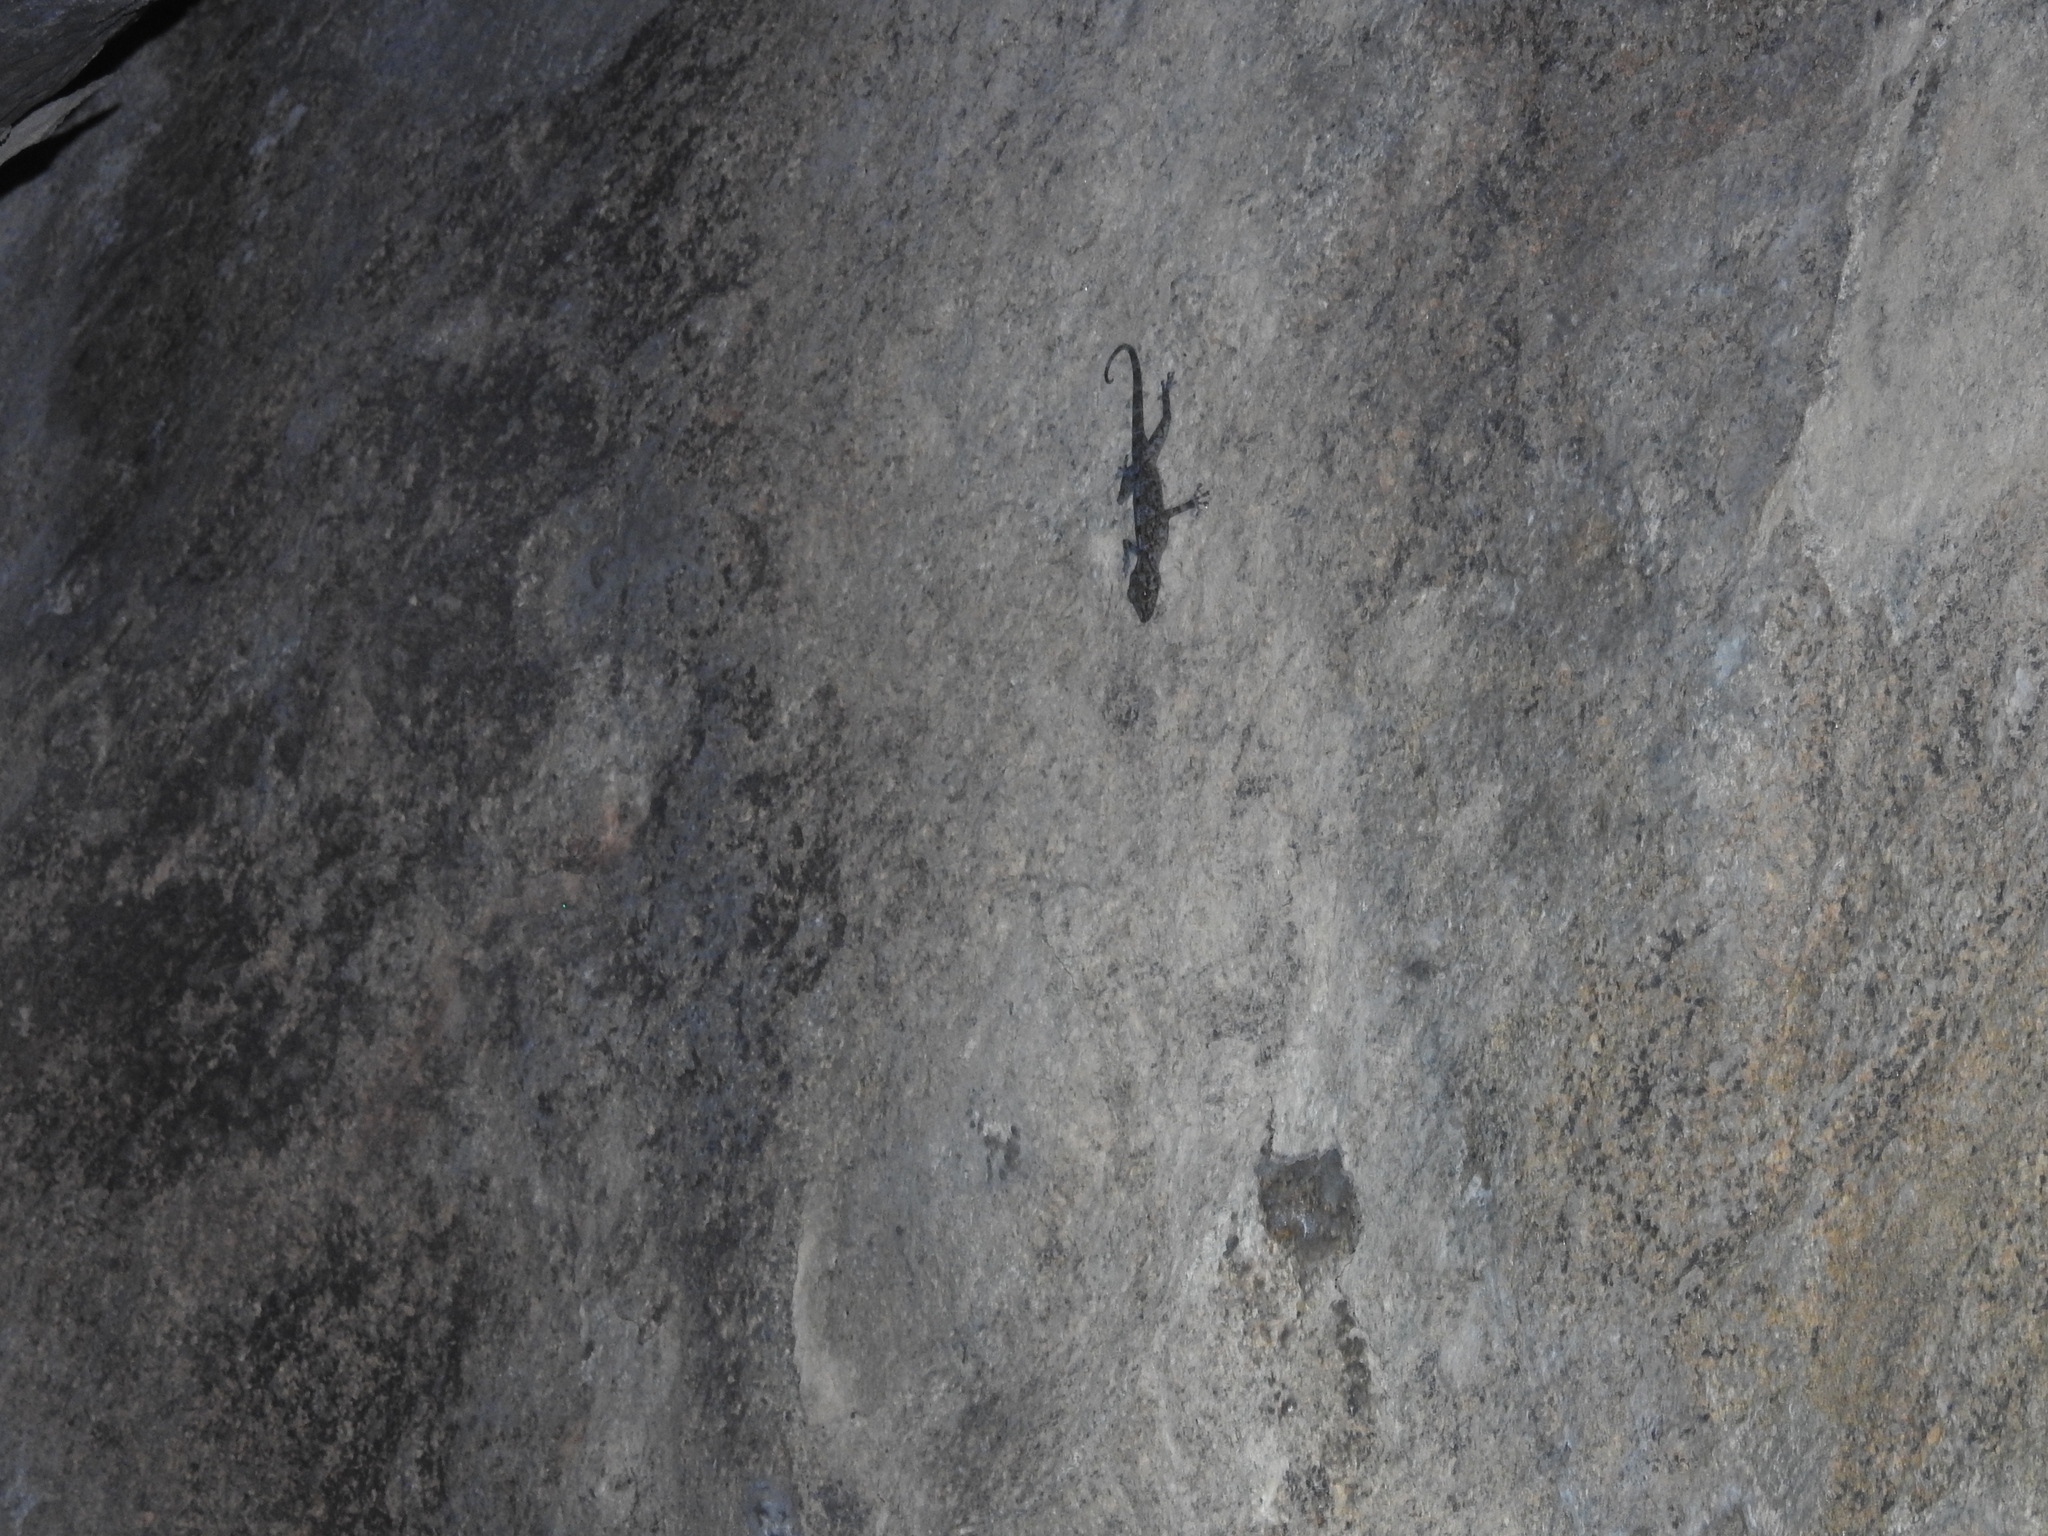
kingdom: Animalia
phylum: Chordata
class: Squamata
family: Gekkonidae
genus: Calodactylodes
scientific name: Calodactylodes aureus
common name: Indian golden gecko
